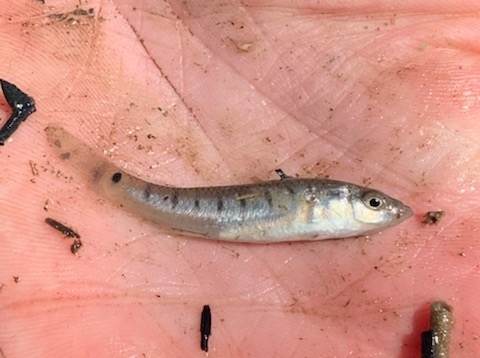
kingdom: Animalia
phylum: Chordata
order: Cyprinodontiformes
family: Fundulidae
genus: Fundulus
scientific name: Fundulus similis
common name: Longnose killifish
